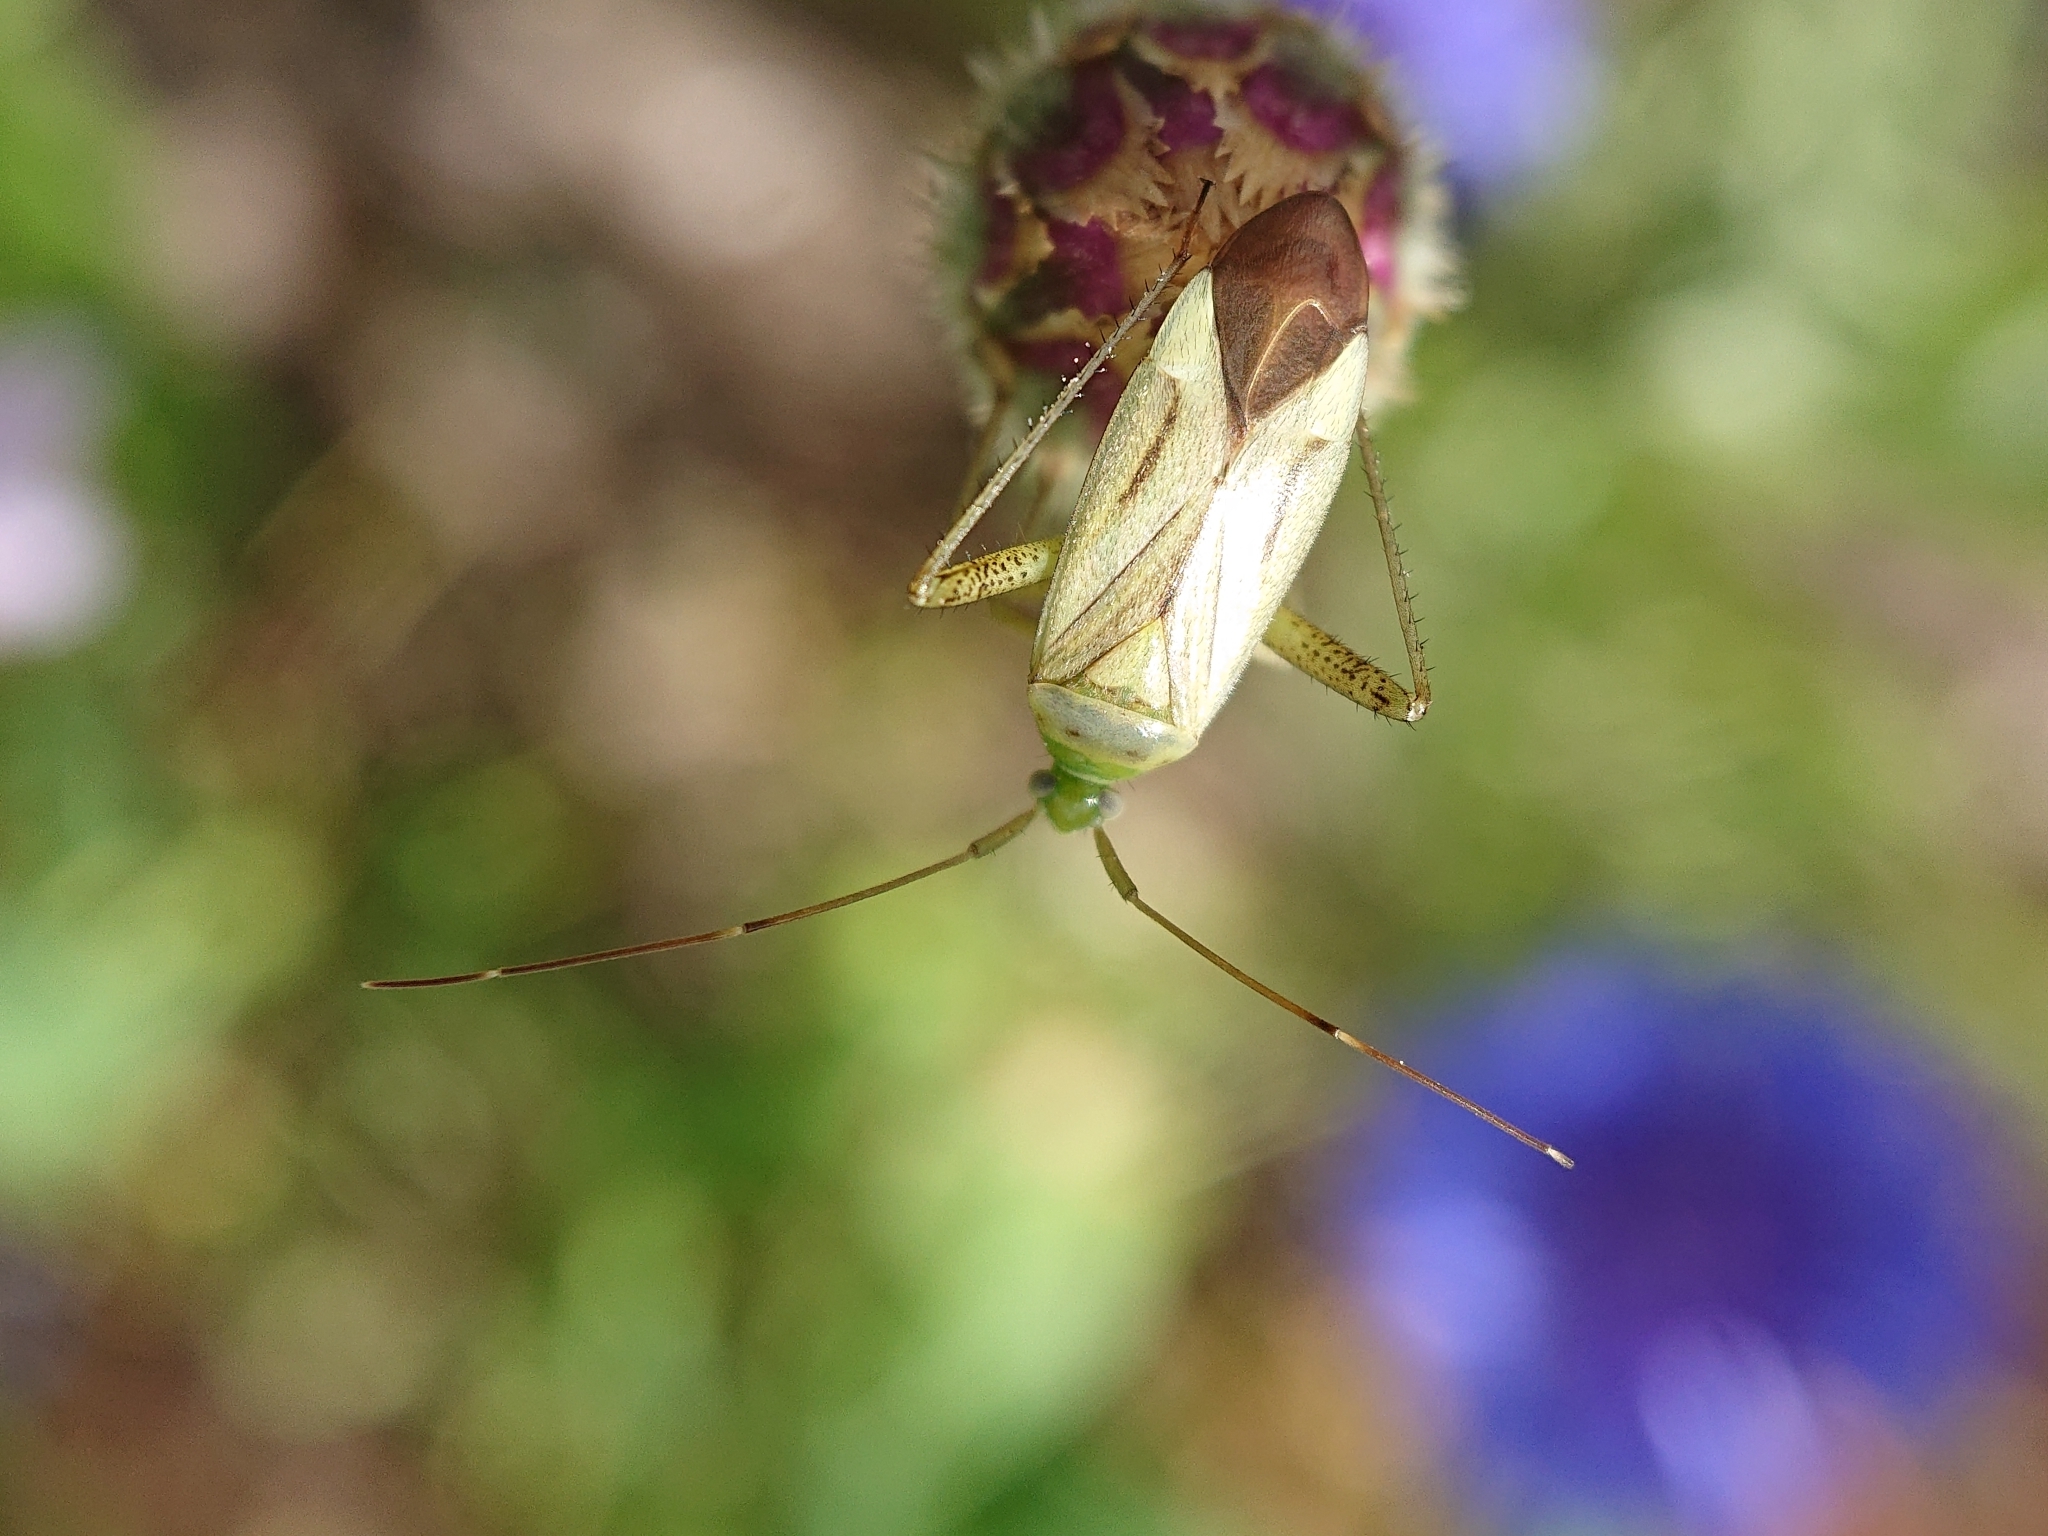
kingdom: Animalia
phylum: Arthropoda
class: Insecta
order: Hemiptera
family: Miridae
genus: Adelphocoris
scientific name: Adelphocoris quadripunctatus
